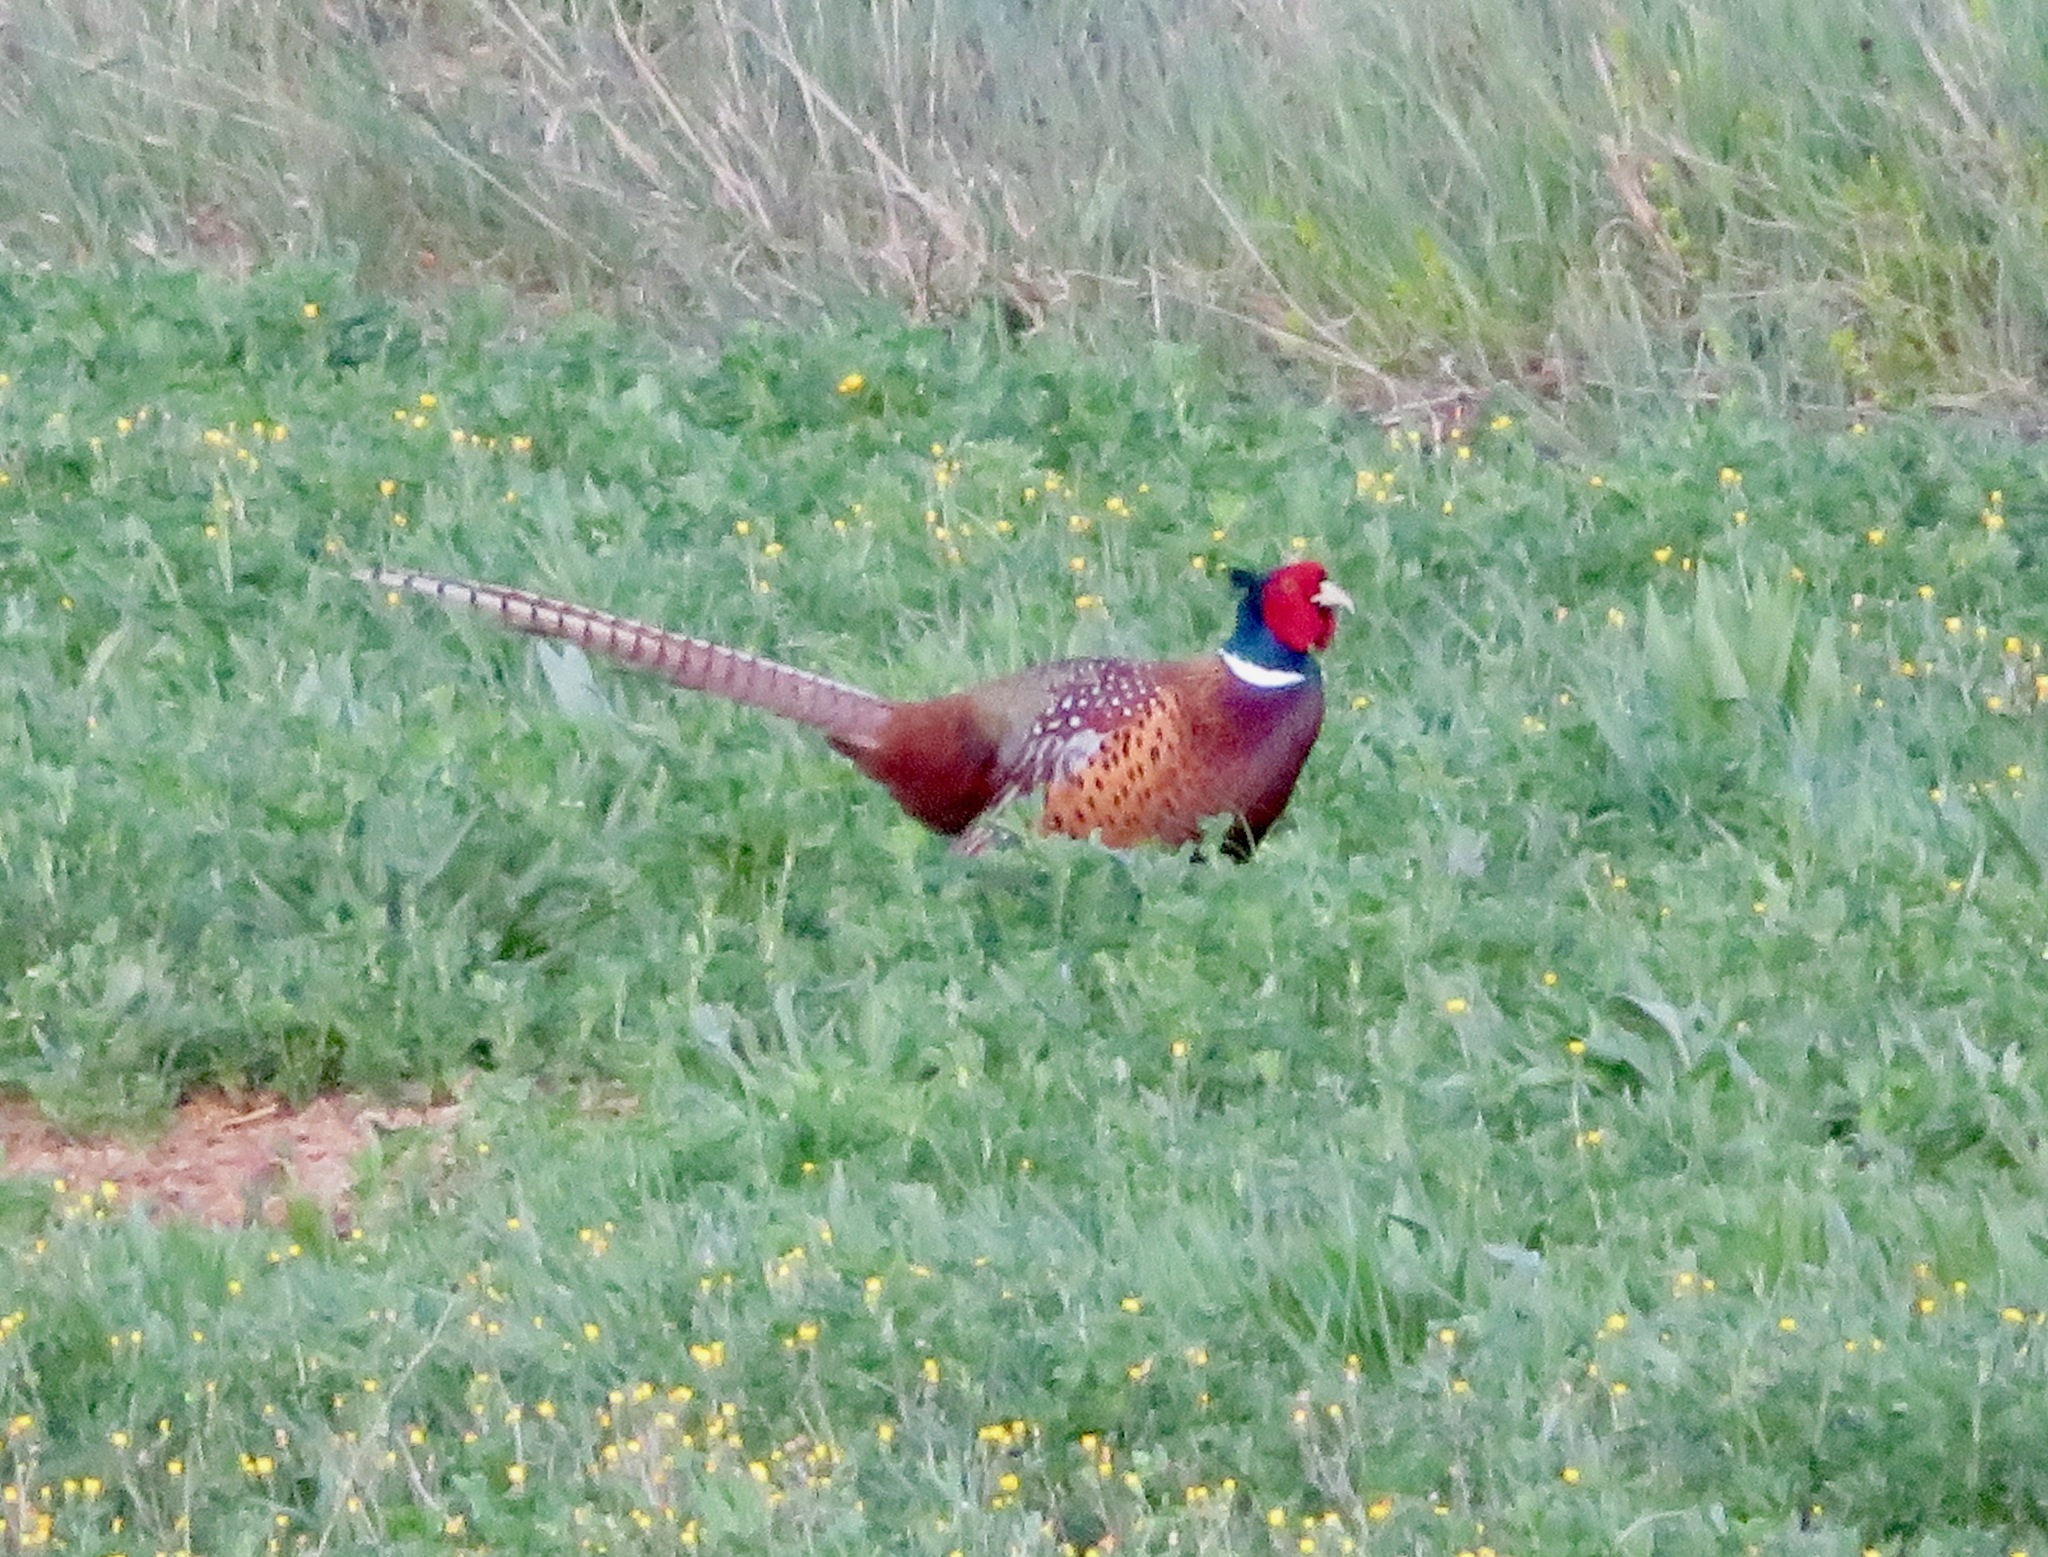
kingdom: Animalia
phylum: Chordata
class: Aves
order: Galliformes
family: Phasianidae
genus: Phasianus
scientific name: Phasianus colchicus
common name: Common pheasant
